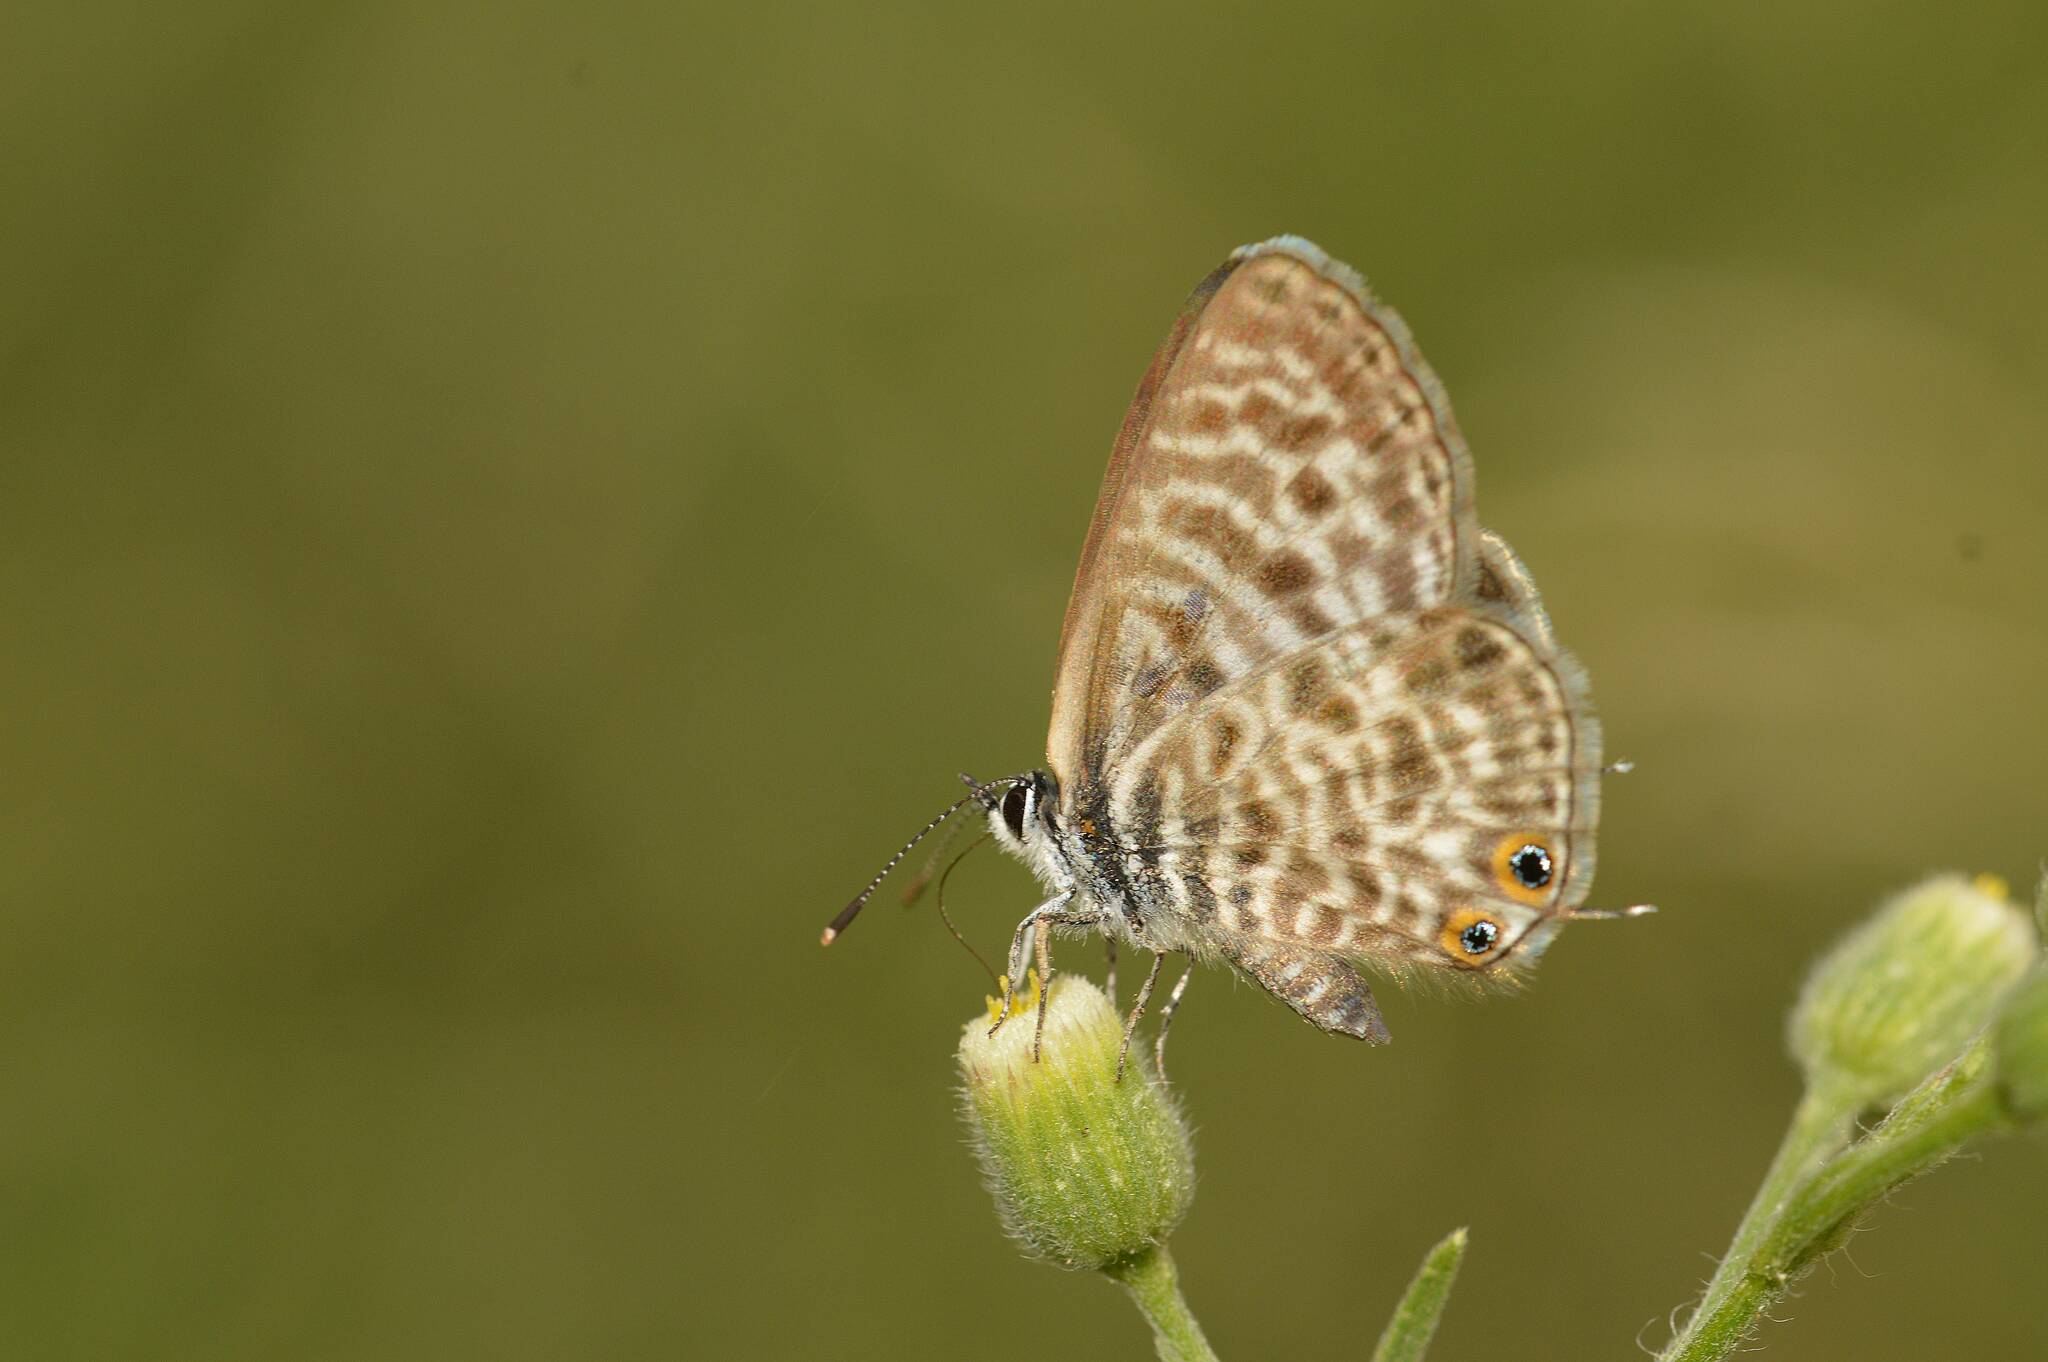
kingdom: Animalia
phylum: Arthropoda
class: Insecta
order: Lepidoptera
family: Lycaenidae
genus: Leptotes
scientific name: Leptotes pirithous
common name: Lang's short-tailed blue
